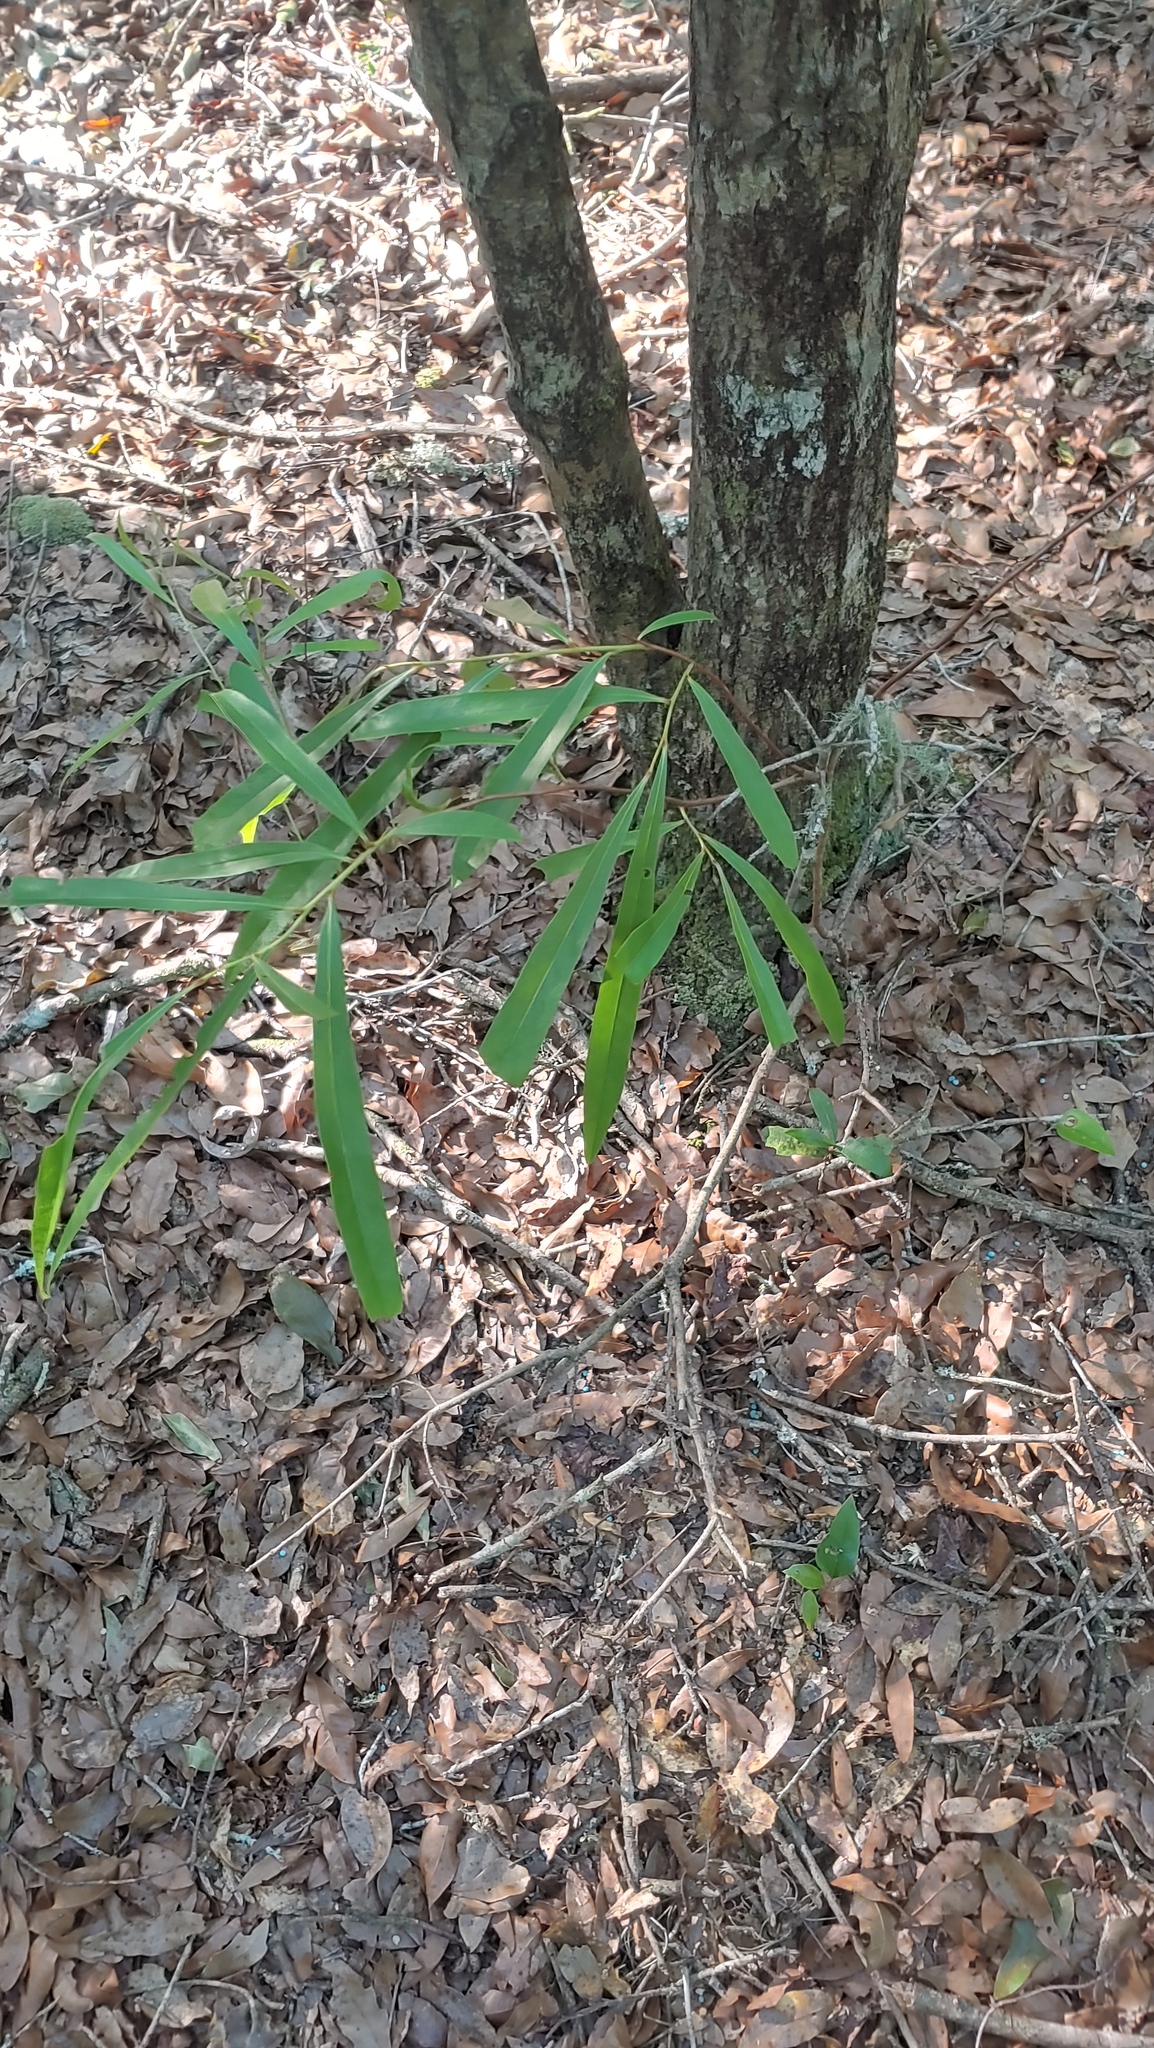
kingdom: Plantae
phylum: Tracheophyta
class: Magnoliopsida
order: Magnoliales
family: Annonaceae
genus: Asimina
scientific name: Asimina longifolia
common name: Polecatbush
